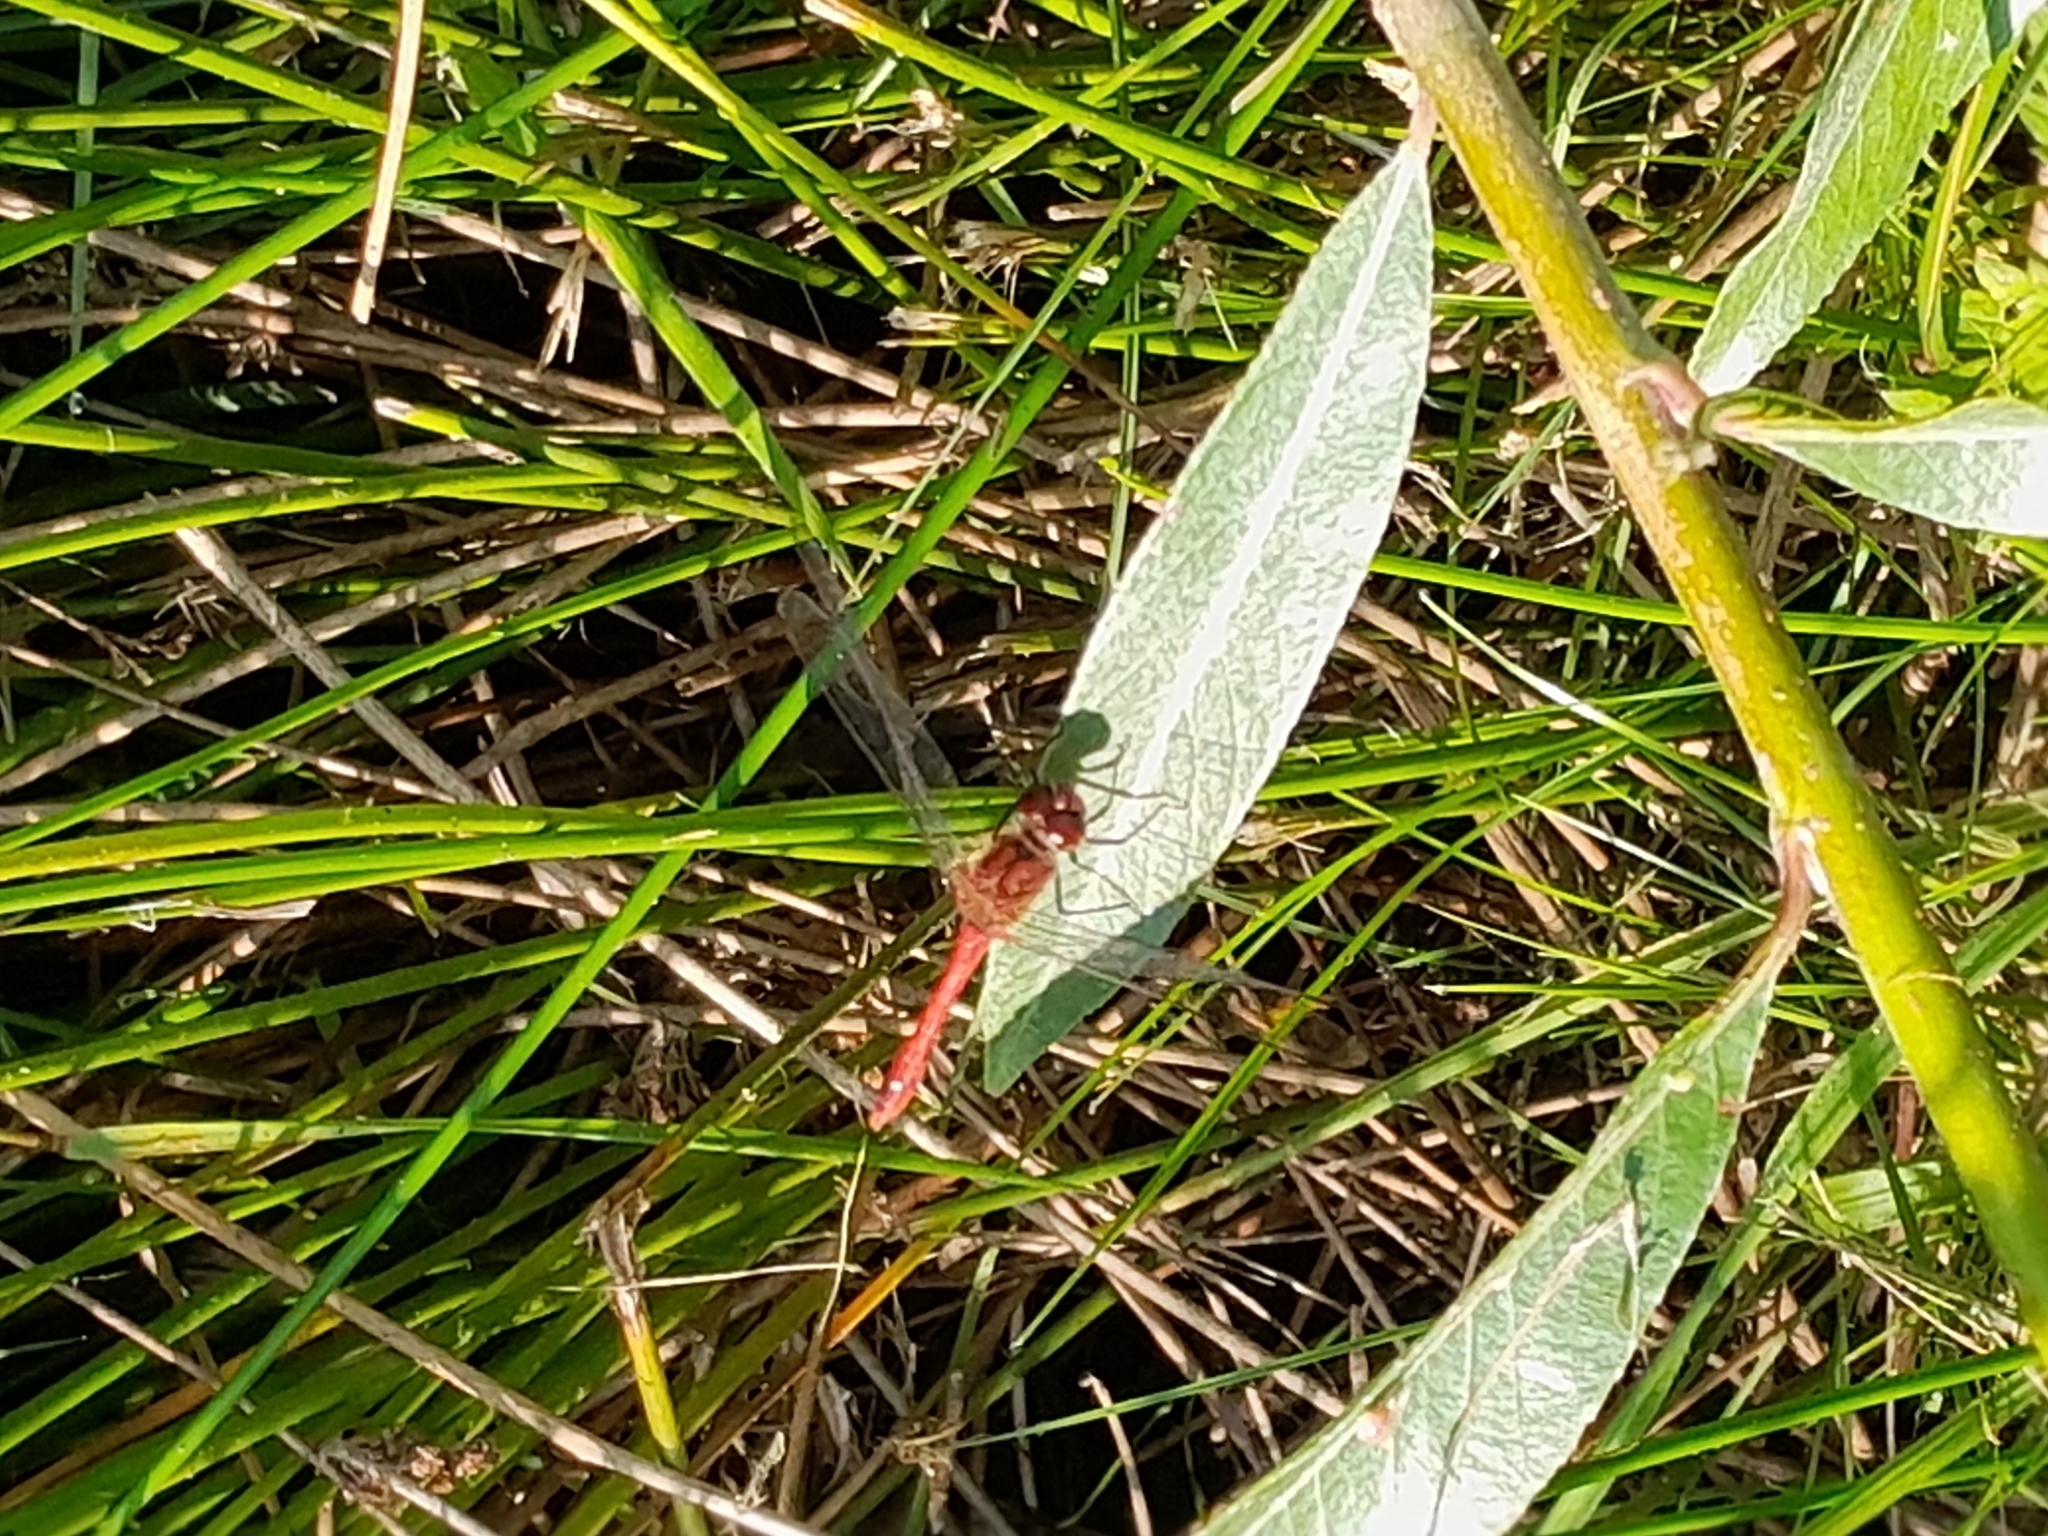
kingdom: Animalia
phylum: Arthropoda
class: Insecta
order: Odonata
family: Libellulidae
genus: Sympetrum
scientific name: Sympetrum sanguineum
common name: Ruddy darter
